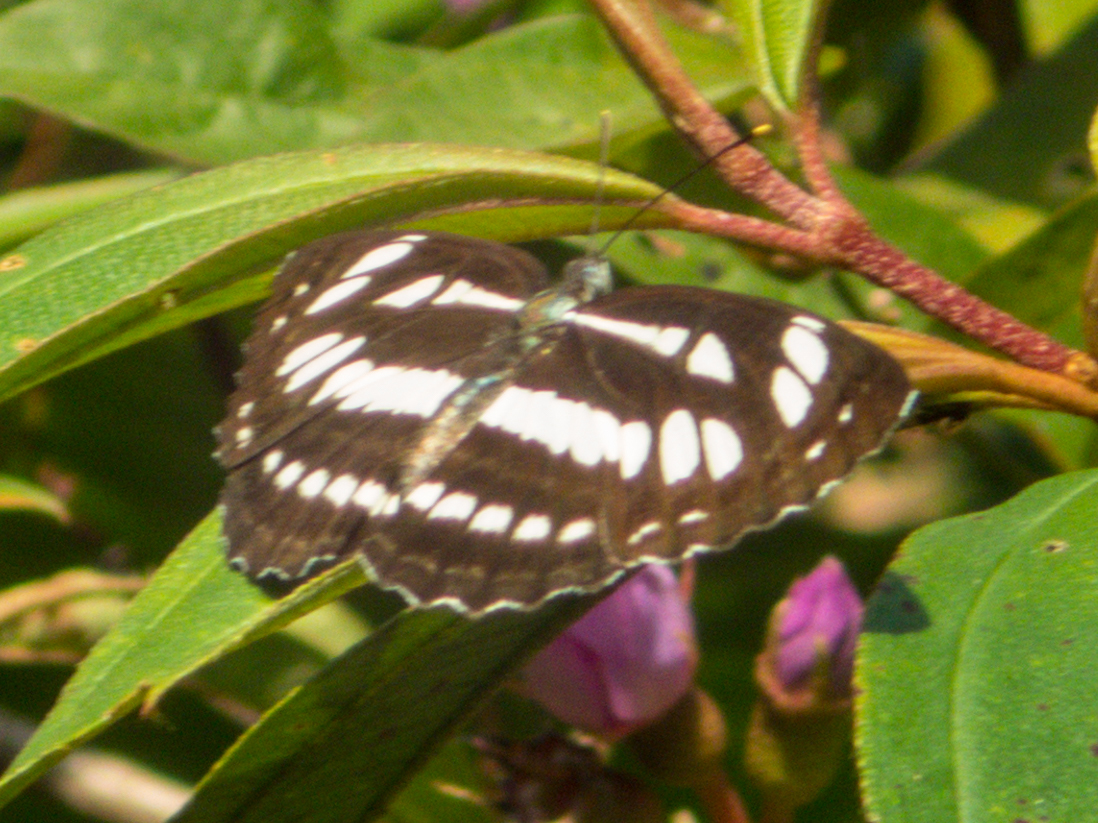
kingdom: Animalia
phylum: Arthropoda
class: Insecta
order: Lepidoptera
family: Nymphalidae
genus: Neptis
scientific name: Neptis hylas
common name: Common sailer
